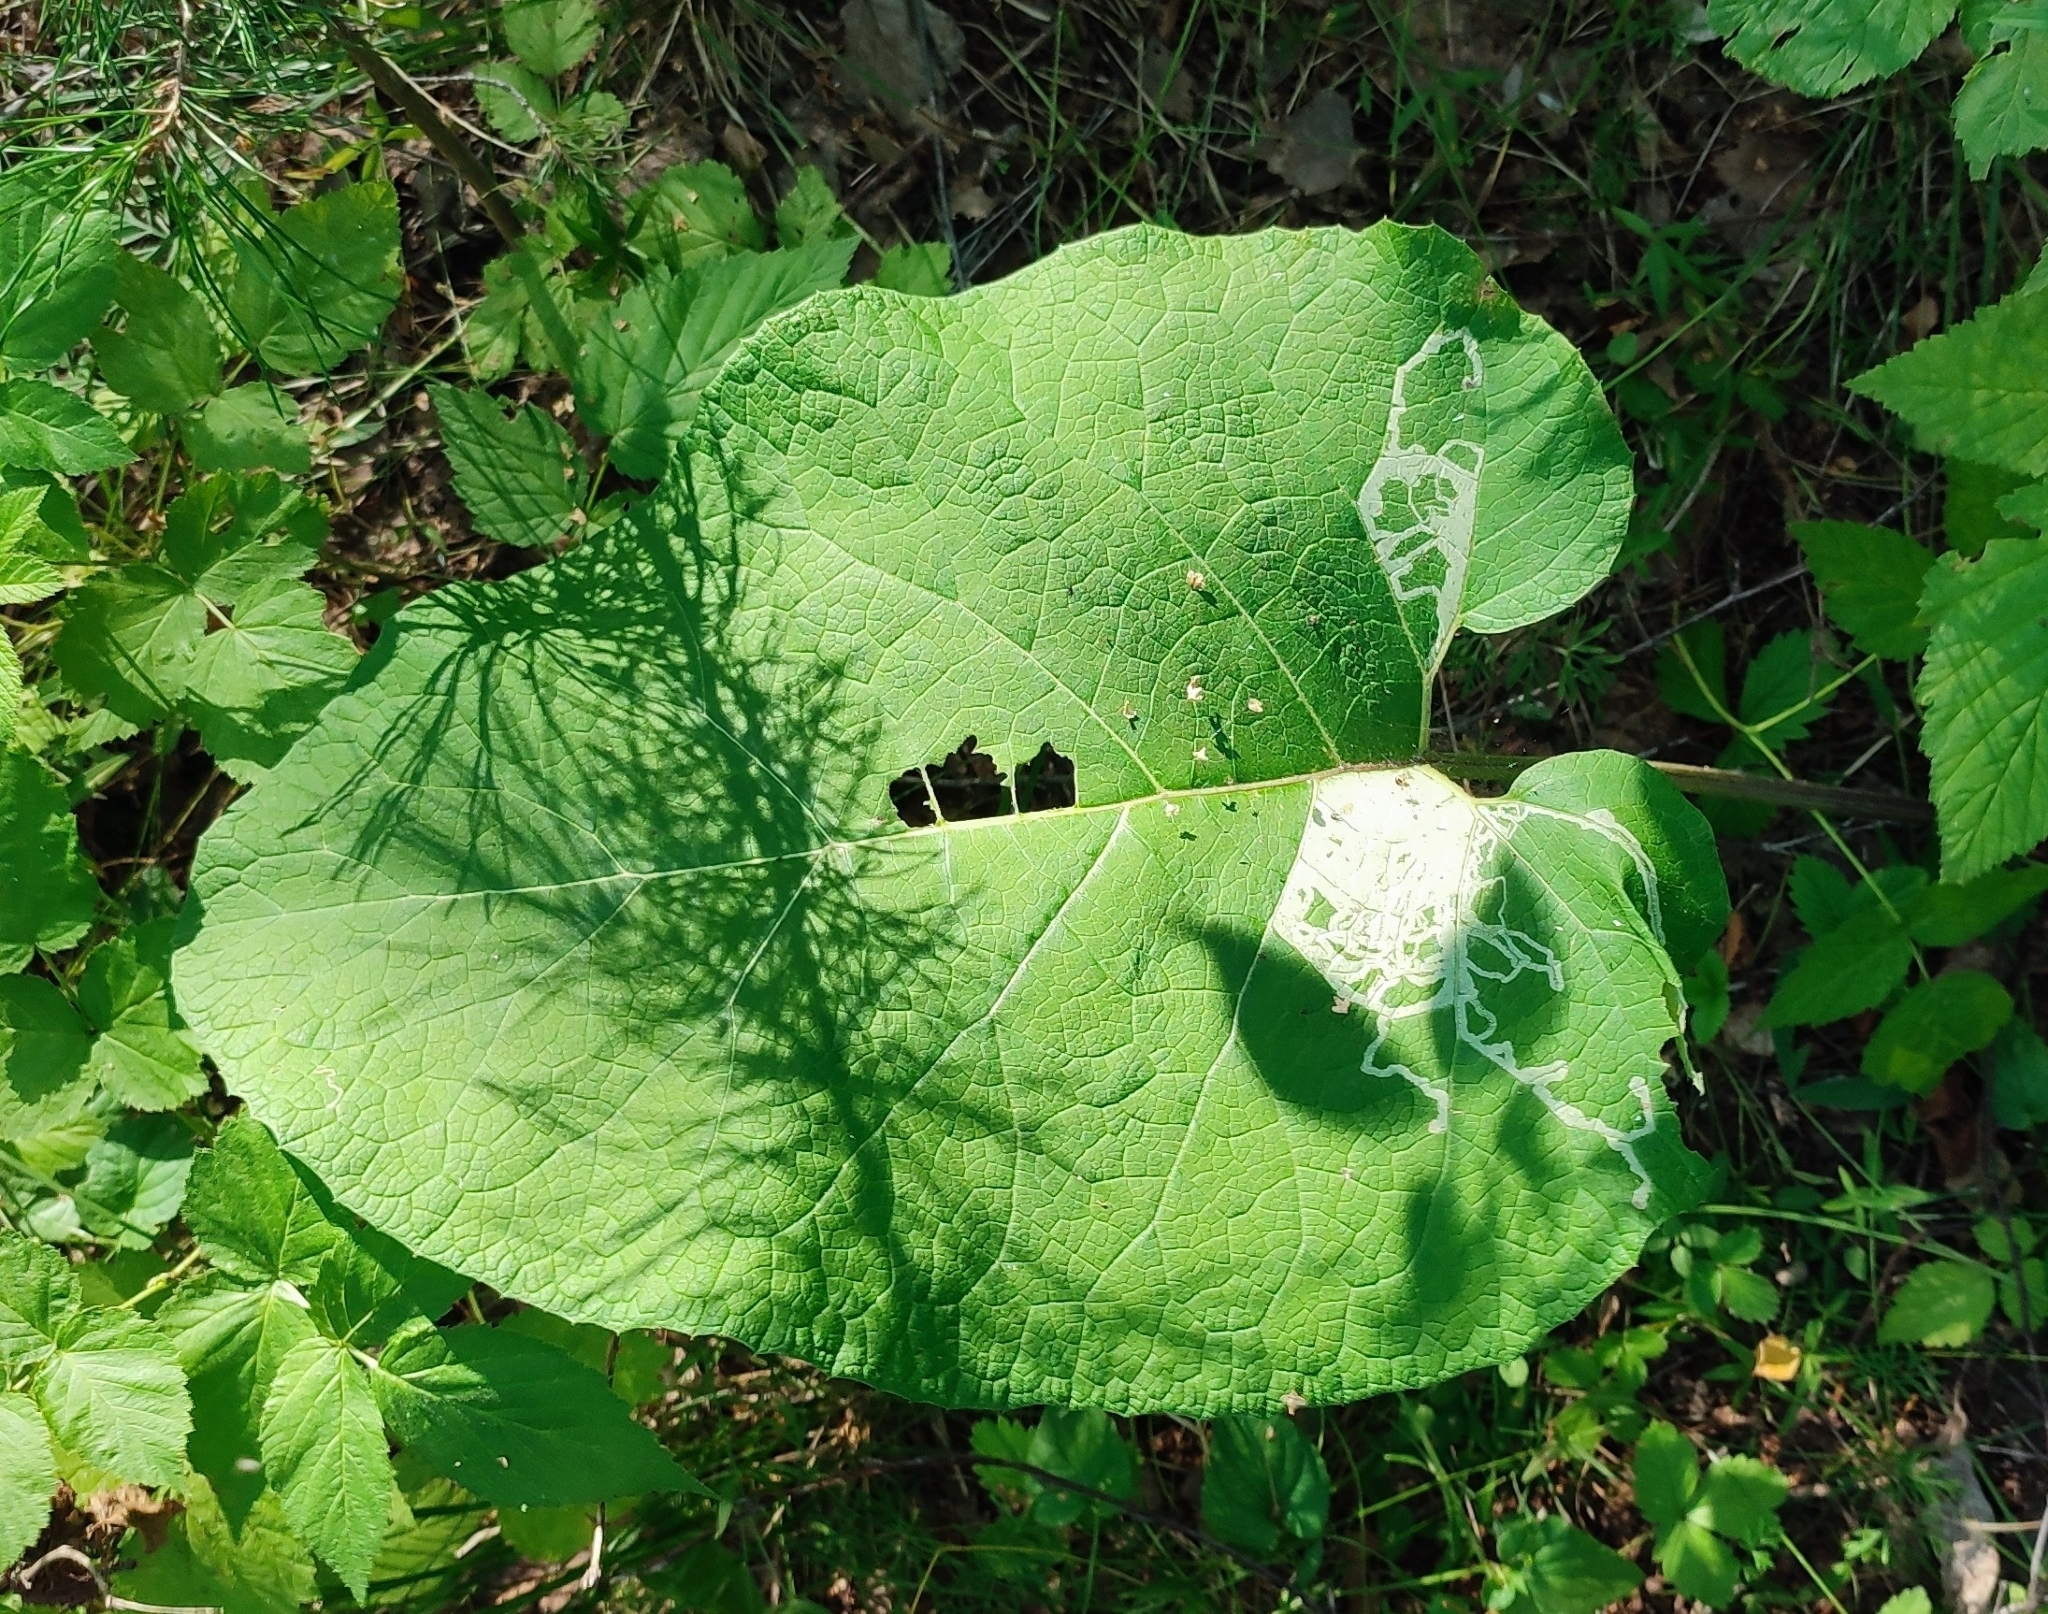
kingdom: Plantae
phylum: Tracheophyta
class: Magnoliopsida
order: Asterales
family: Asteraceae
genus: Arctium
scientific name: Arctium tomentosum
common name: Woolly burdock
